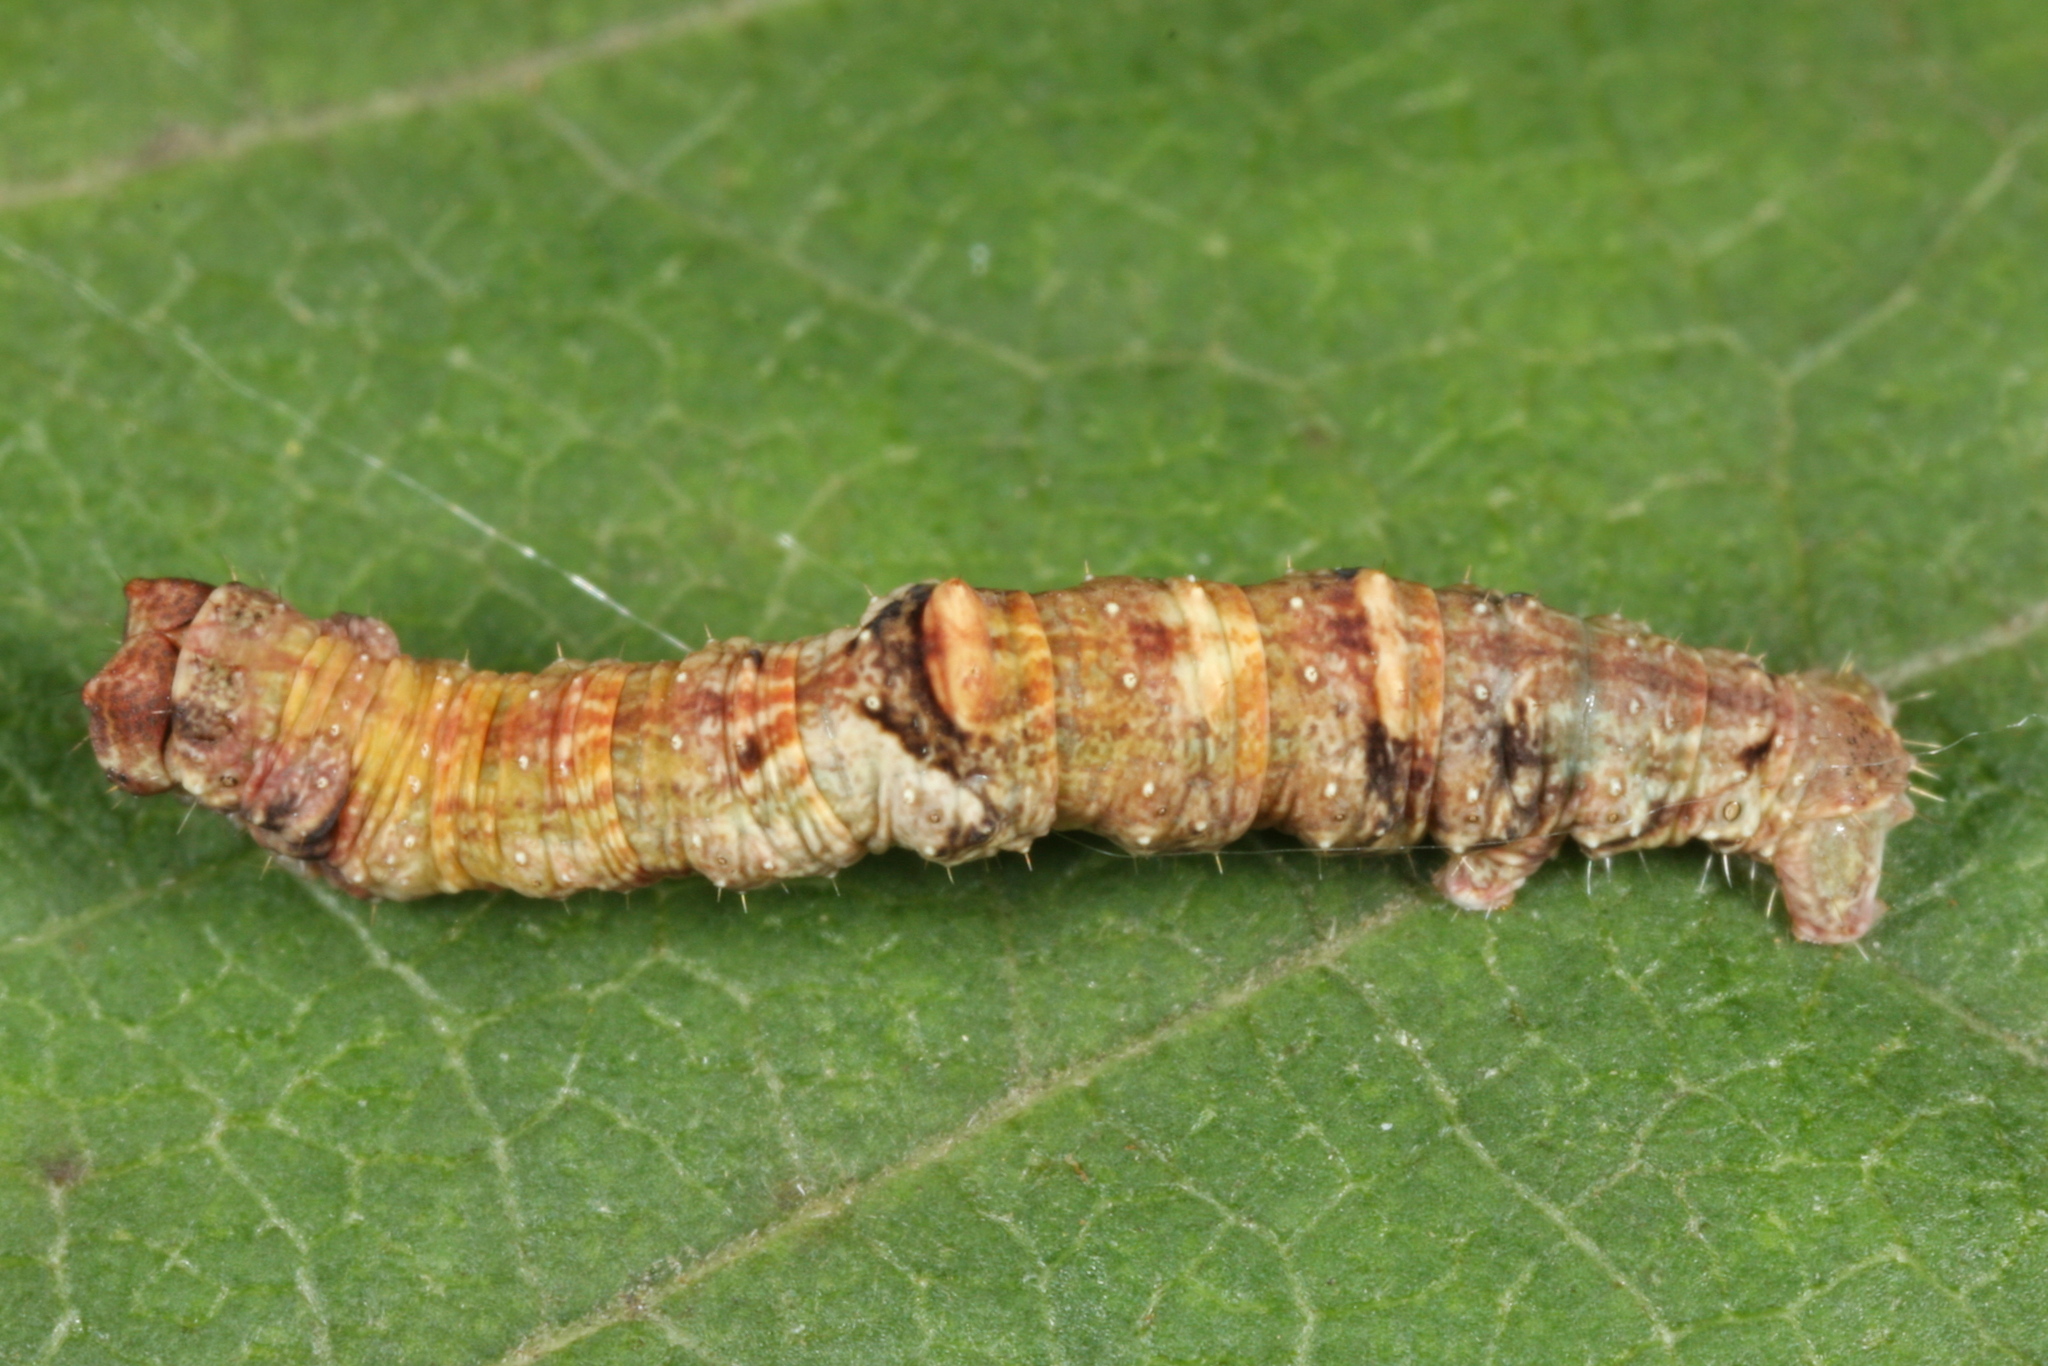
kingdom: Animalia
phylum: Arthropoda
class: Insecta
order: Lepidoptera
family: Geometridae
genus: Opisthograptis
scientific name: Opisthograptis luteolata
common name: Brimstone moth
